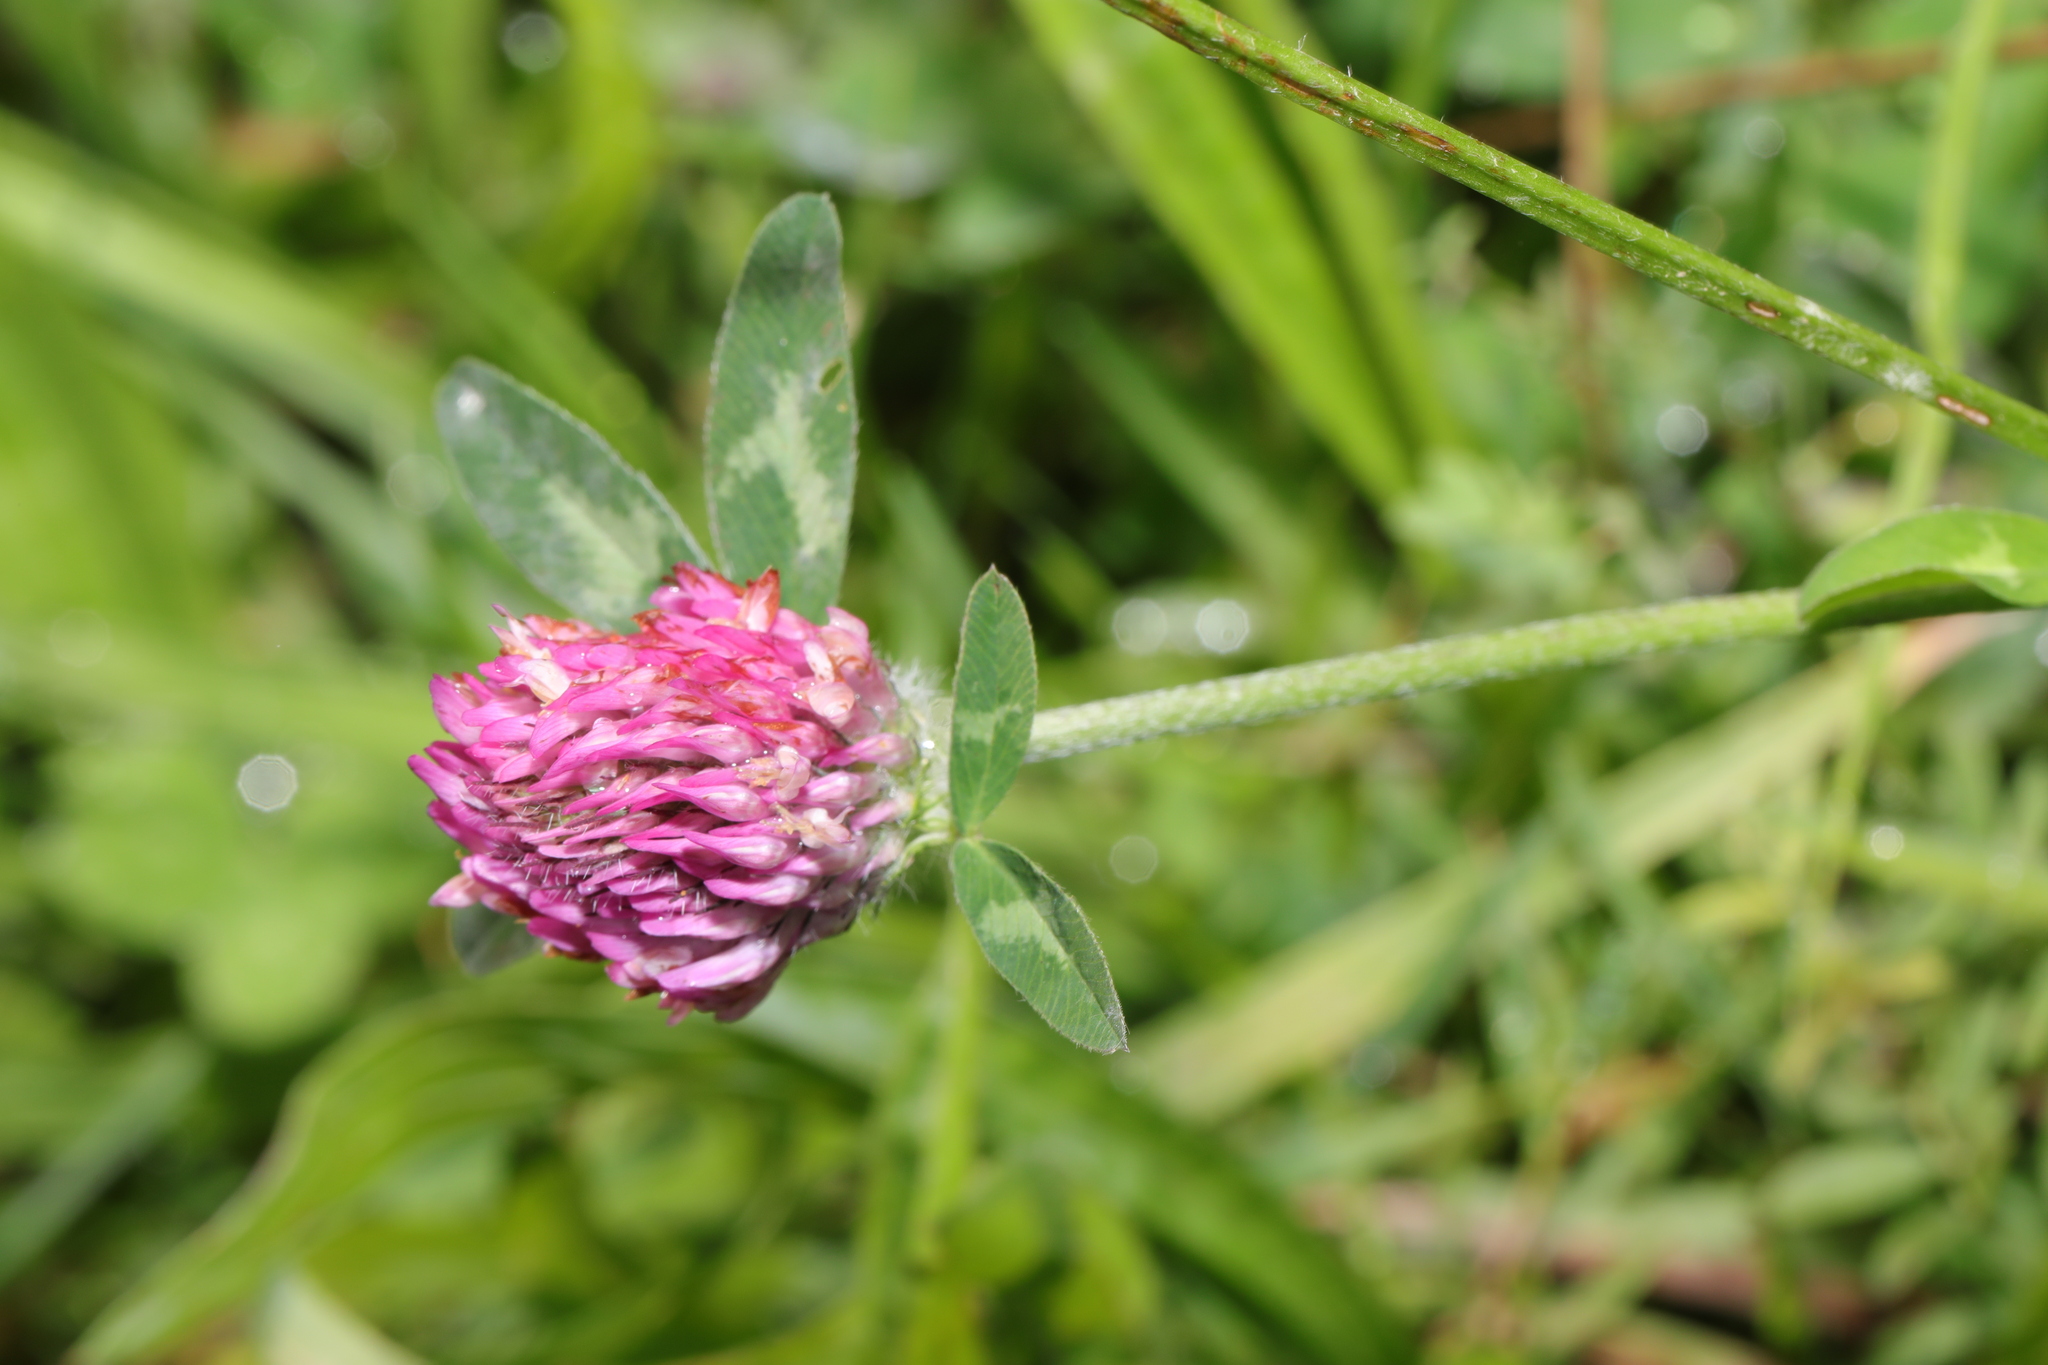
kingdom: Plantae
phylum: Tracheophyta
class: Magnoliopsida
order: Fabales
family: Fabaceae
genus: Trifolium
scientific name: Trifolium pratense
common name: Red clover
